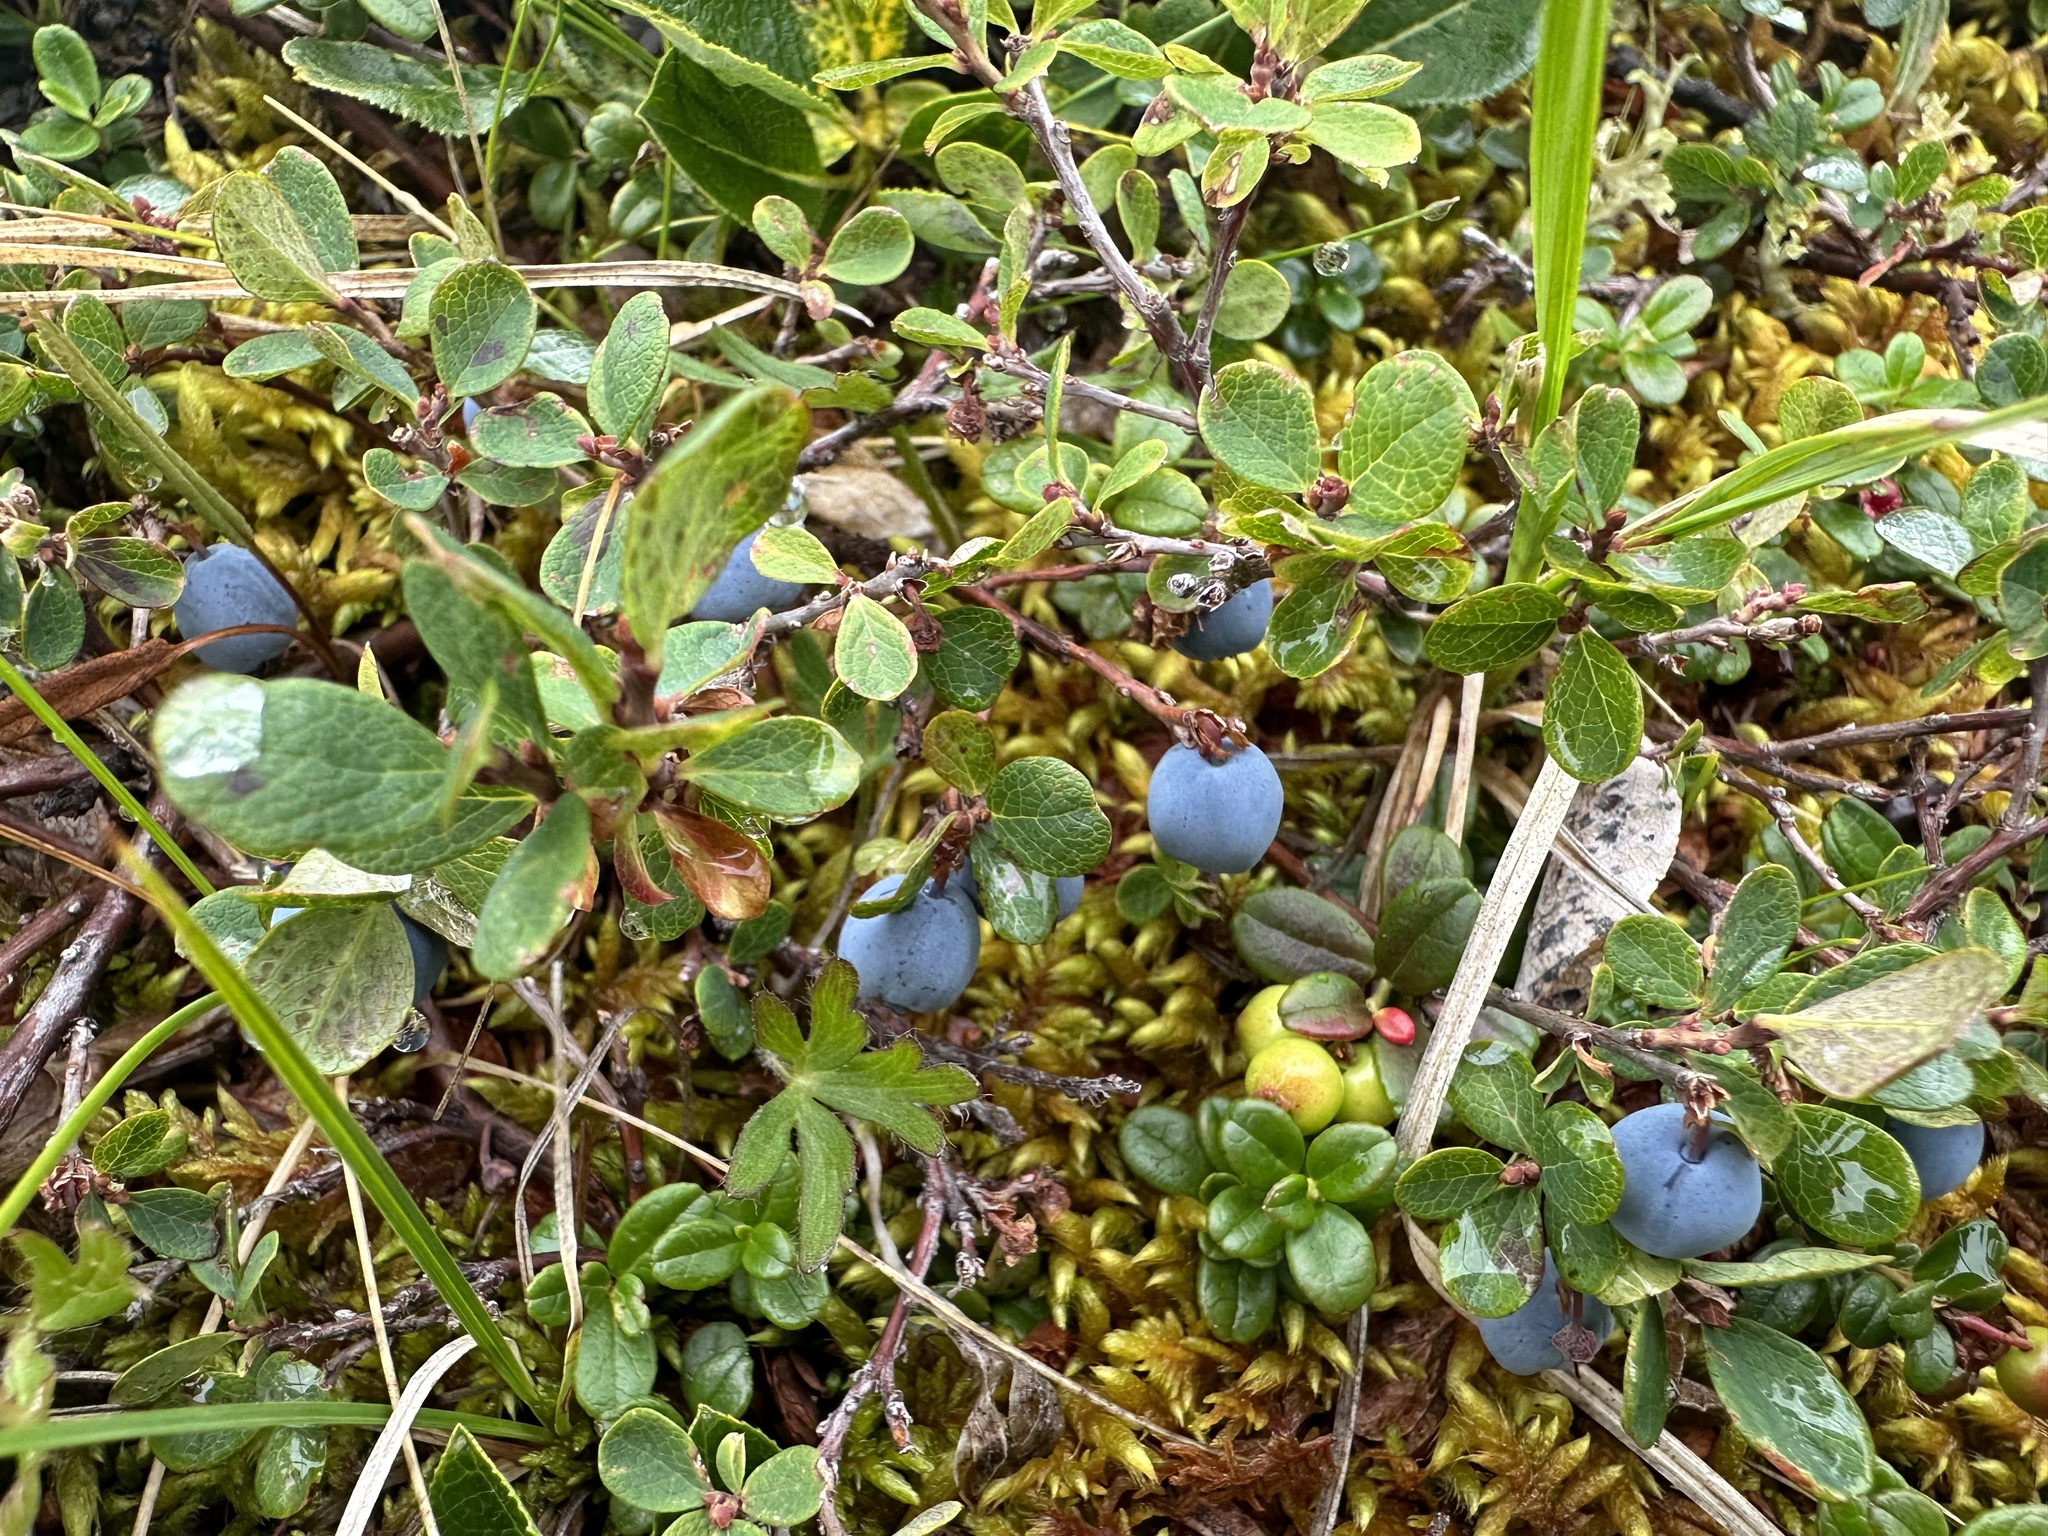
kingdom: Plantae
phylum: Tracheophyta
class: Magnoliopsida
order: Ericales
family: Ericaceae
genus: Vaccinium
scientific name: Vaccinium uliginosum
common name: Bog bilberry
